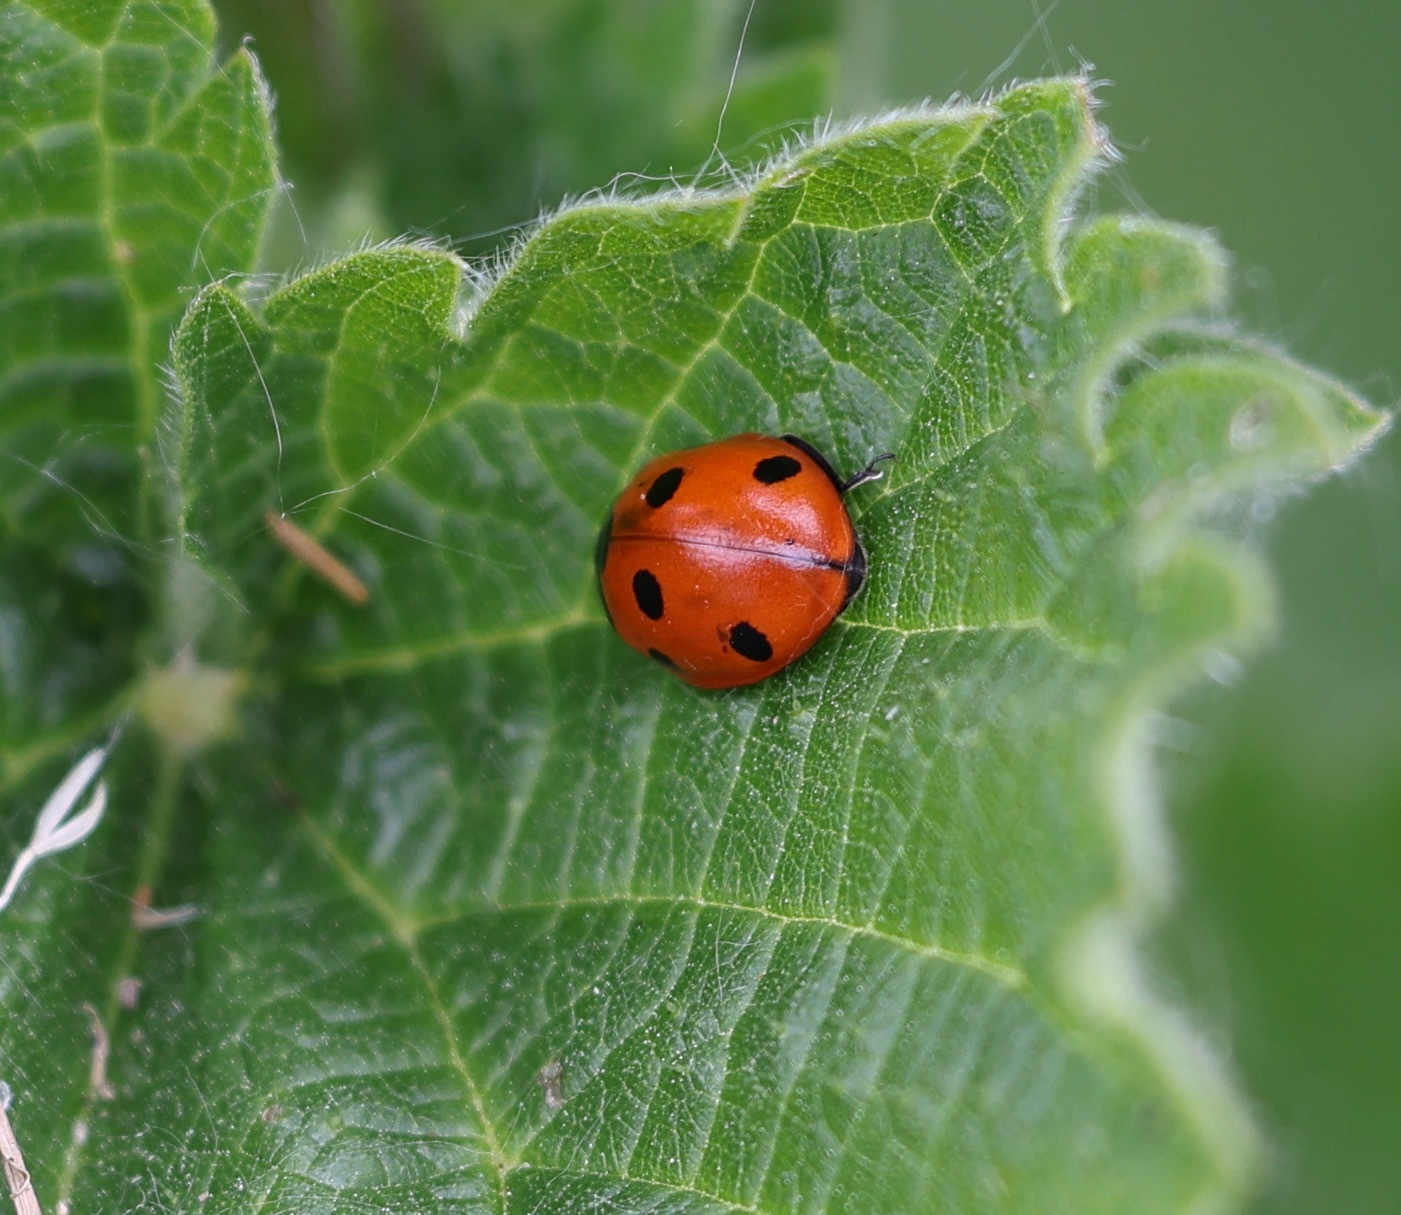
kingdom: Animalia
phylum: Arthropoda
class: Insecta
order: Coleoptera
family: Coccinellidae
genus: Coccinella
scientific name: Coccinella septempunctata
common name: Sevenspotted lady beetle
